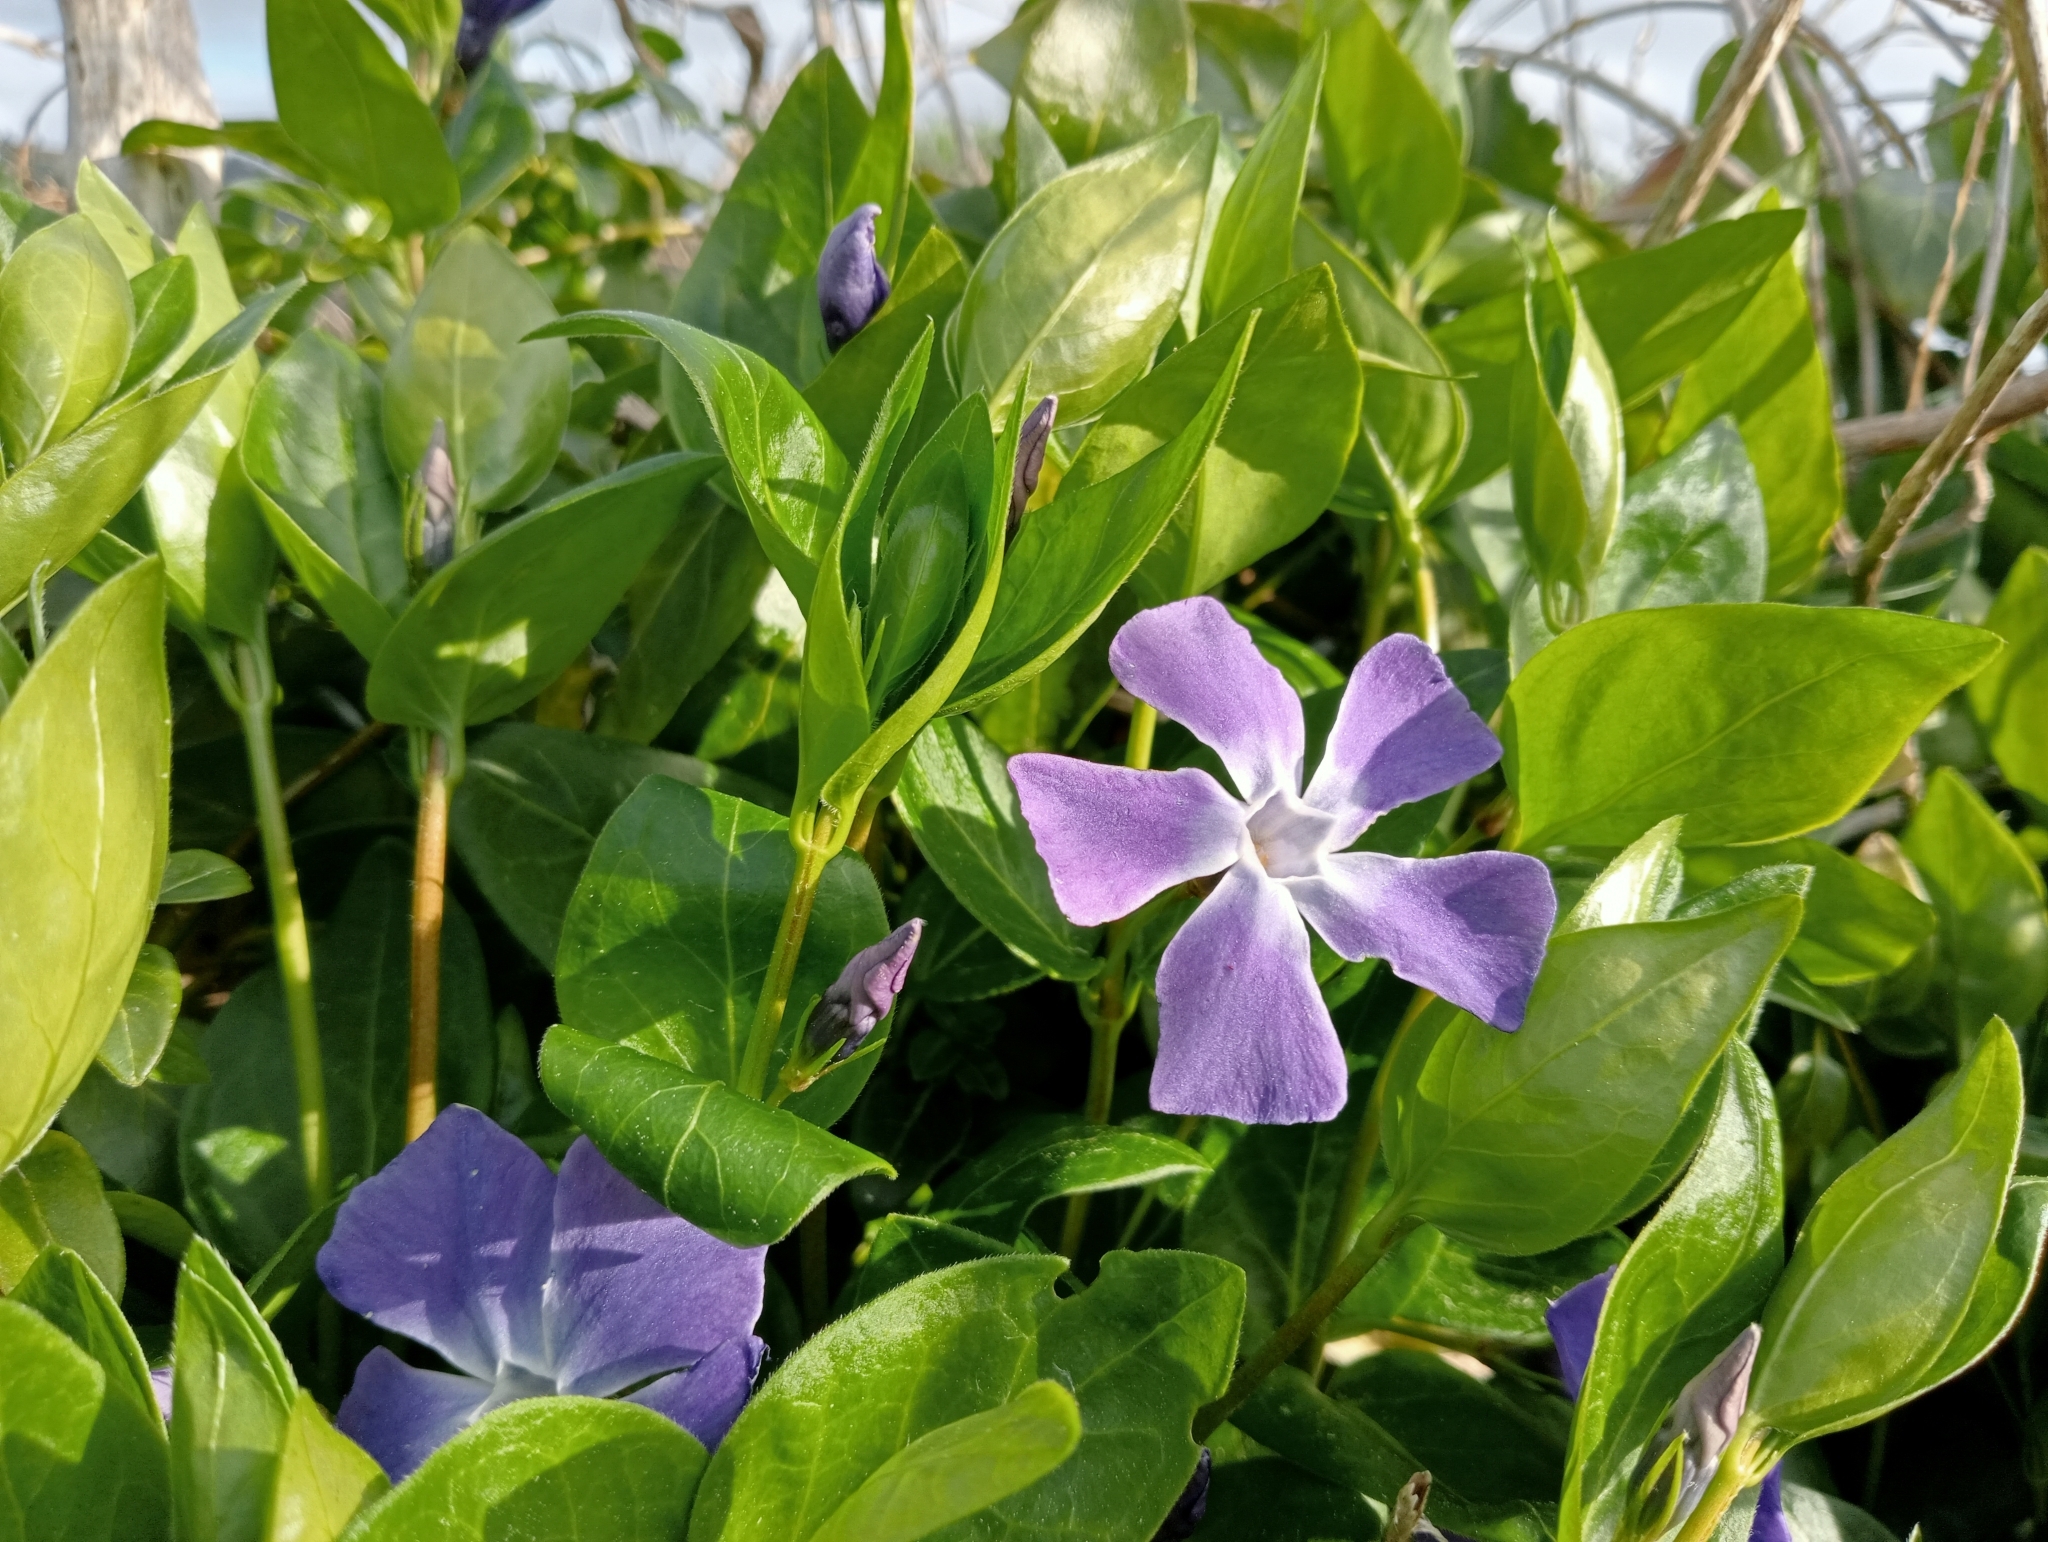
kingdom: Plantae
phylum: Tracheophyta
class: Magnoliopsida
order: Gentianales
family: Apocynaceae
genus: Vinca
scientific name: Vinca major
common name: Greater periwinkle
